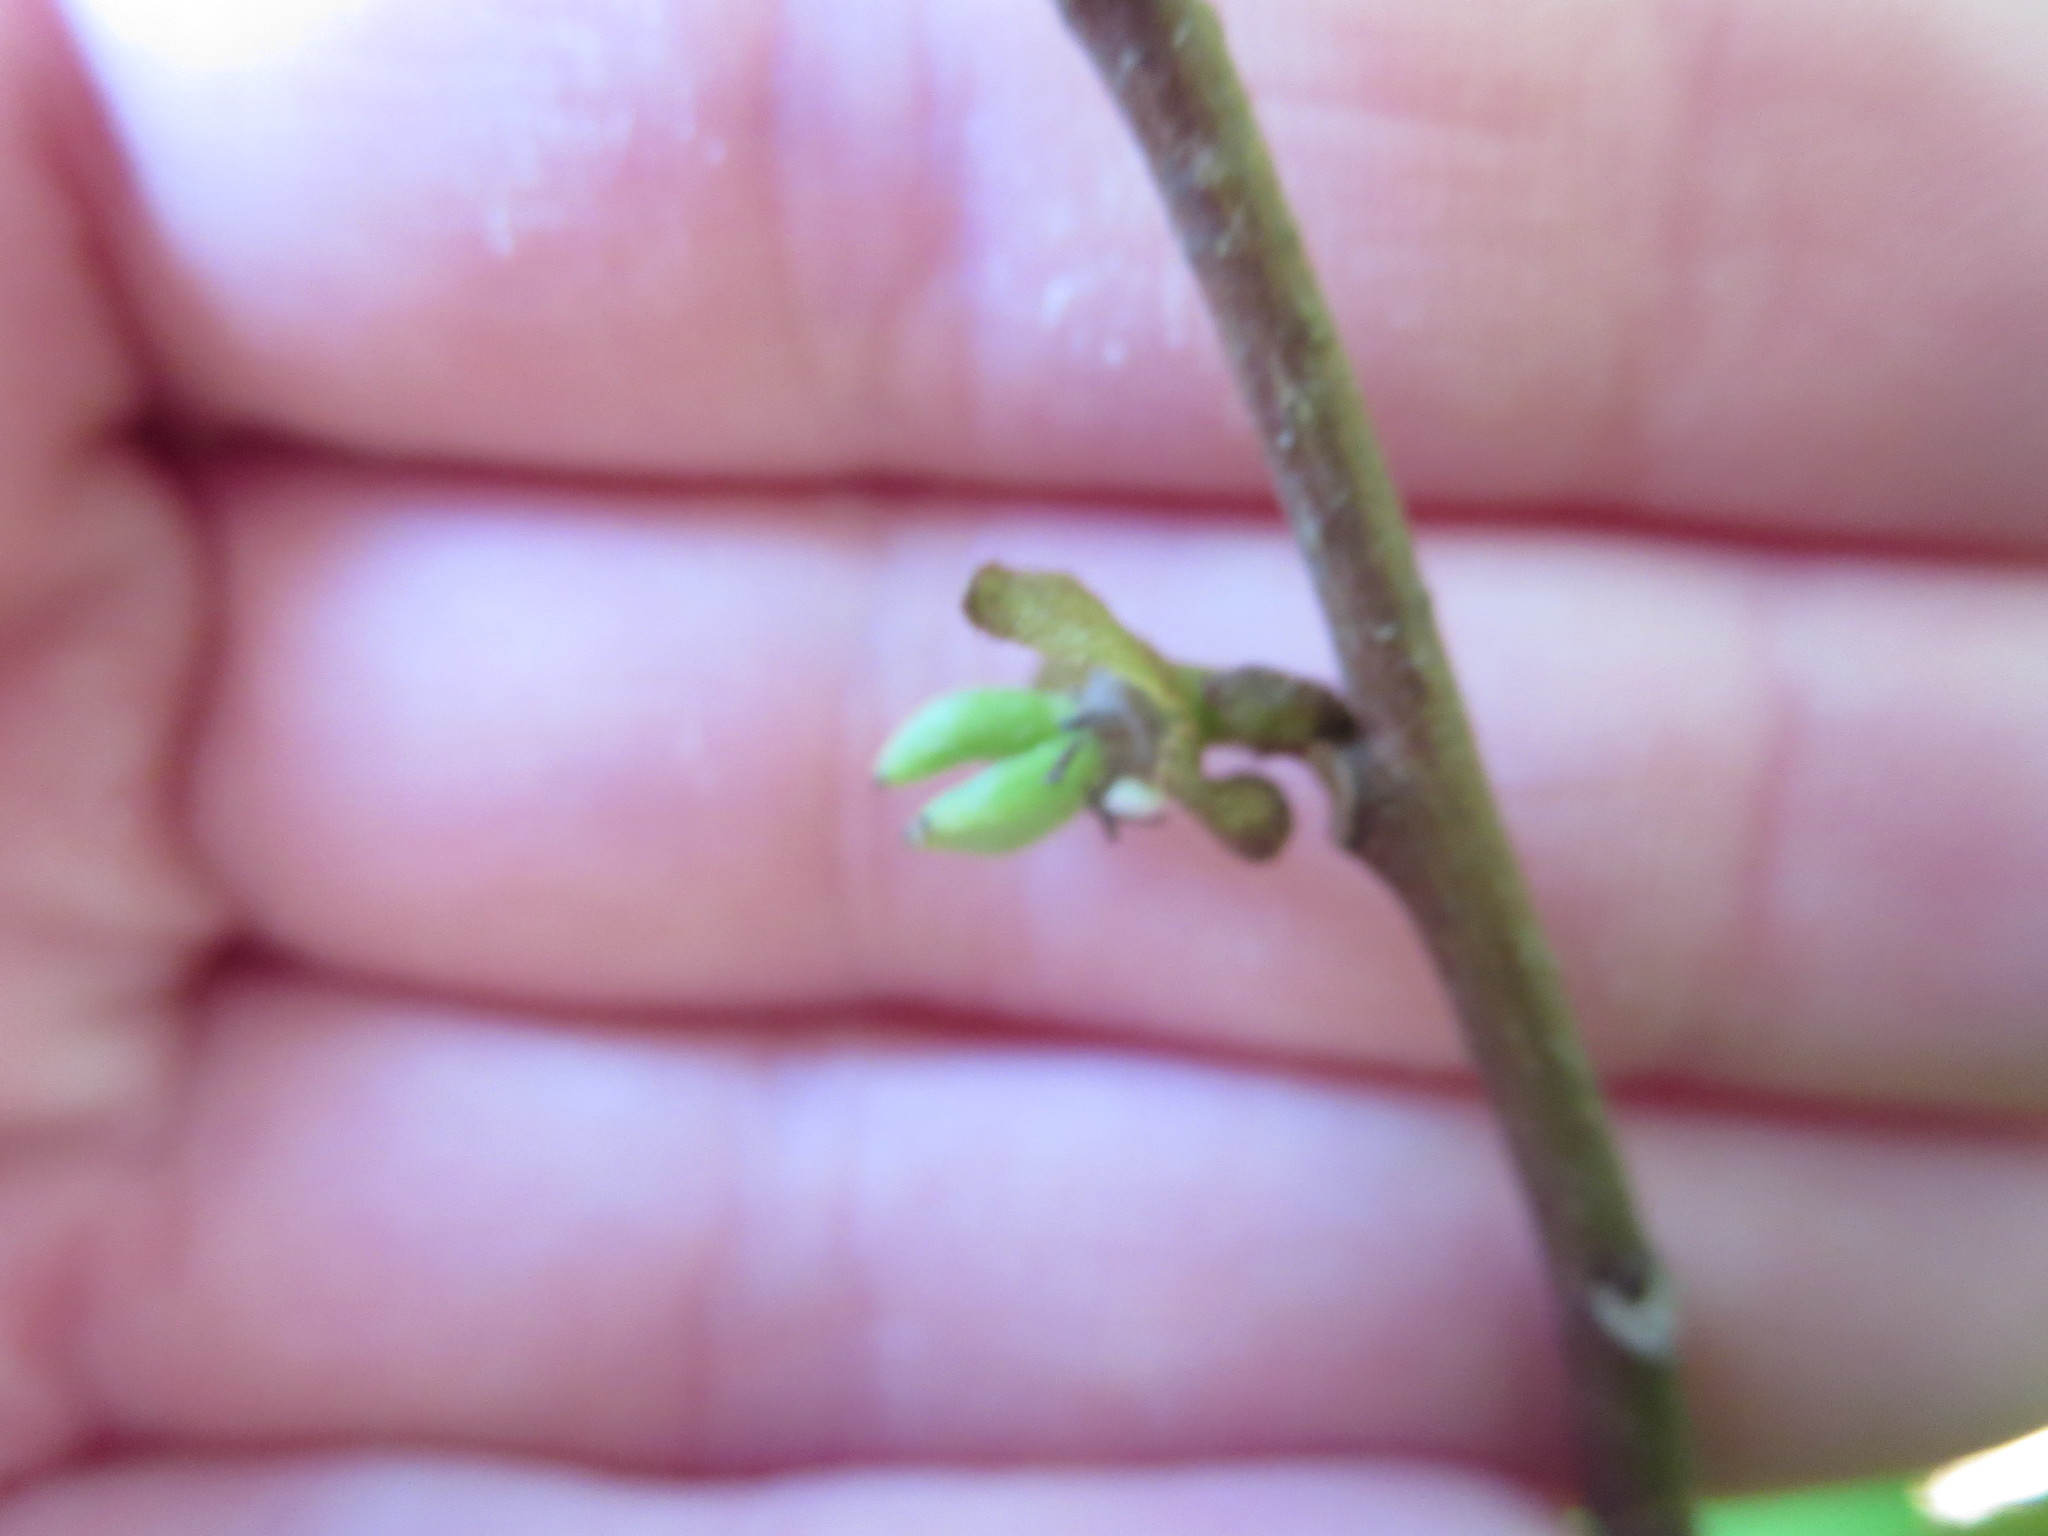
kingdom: Plantae
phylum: Tracheophyta
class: Magnoliopsida
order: Magnoliales
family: Annonaceae
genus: Asimina
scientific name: Asimina parviflora
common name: Dwarf pawpaw
